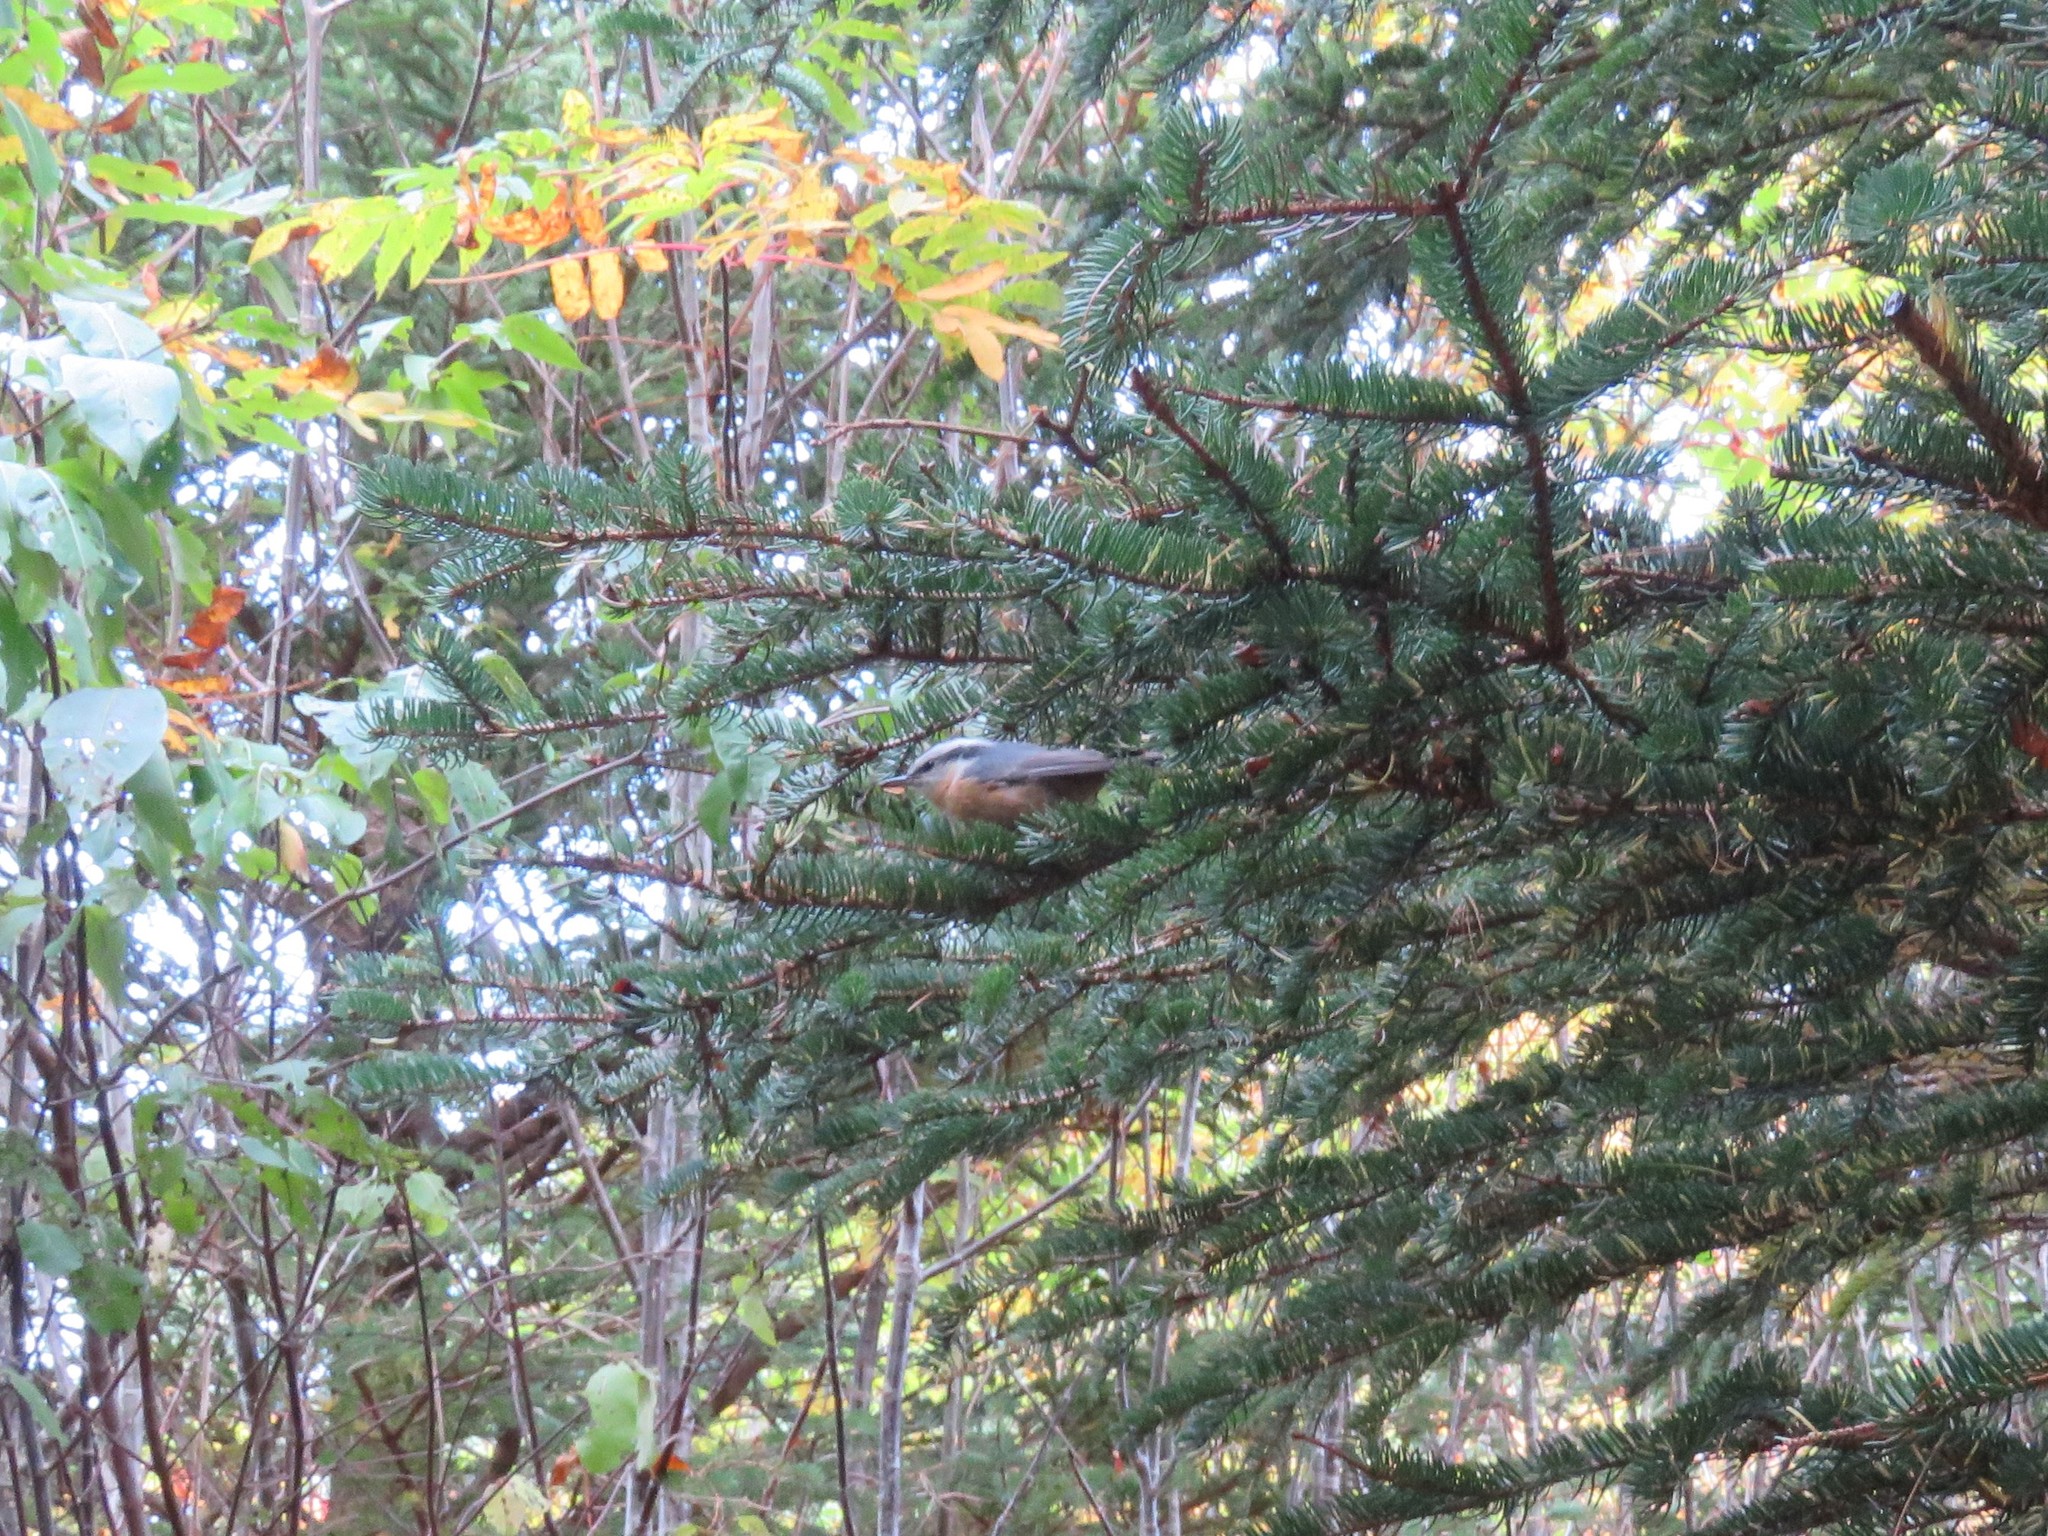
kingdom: Animalia
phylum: Chordata
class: Aves
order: Passeriformes
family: Sittidae
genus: Sitta
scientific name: Sitta canadensis
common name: Red-breasted nuthatch
